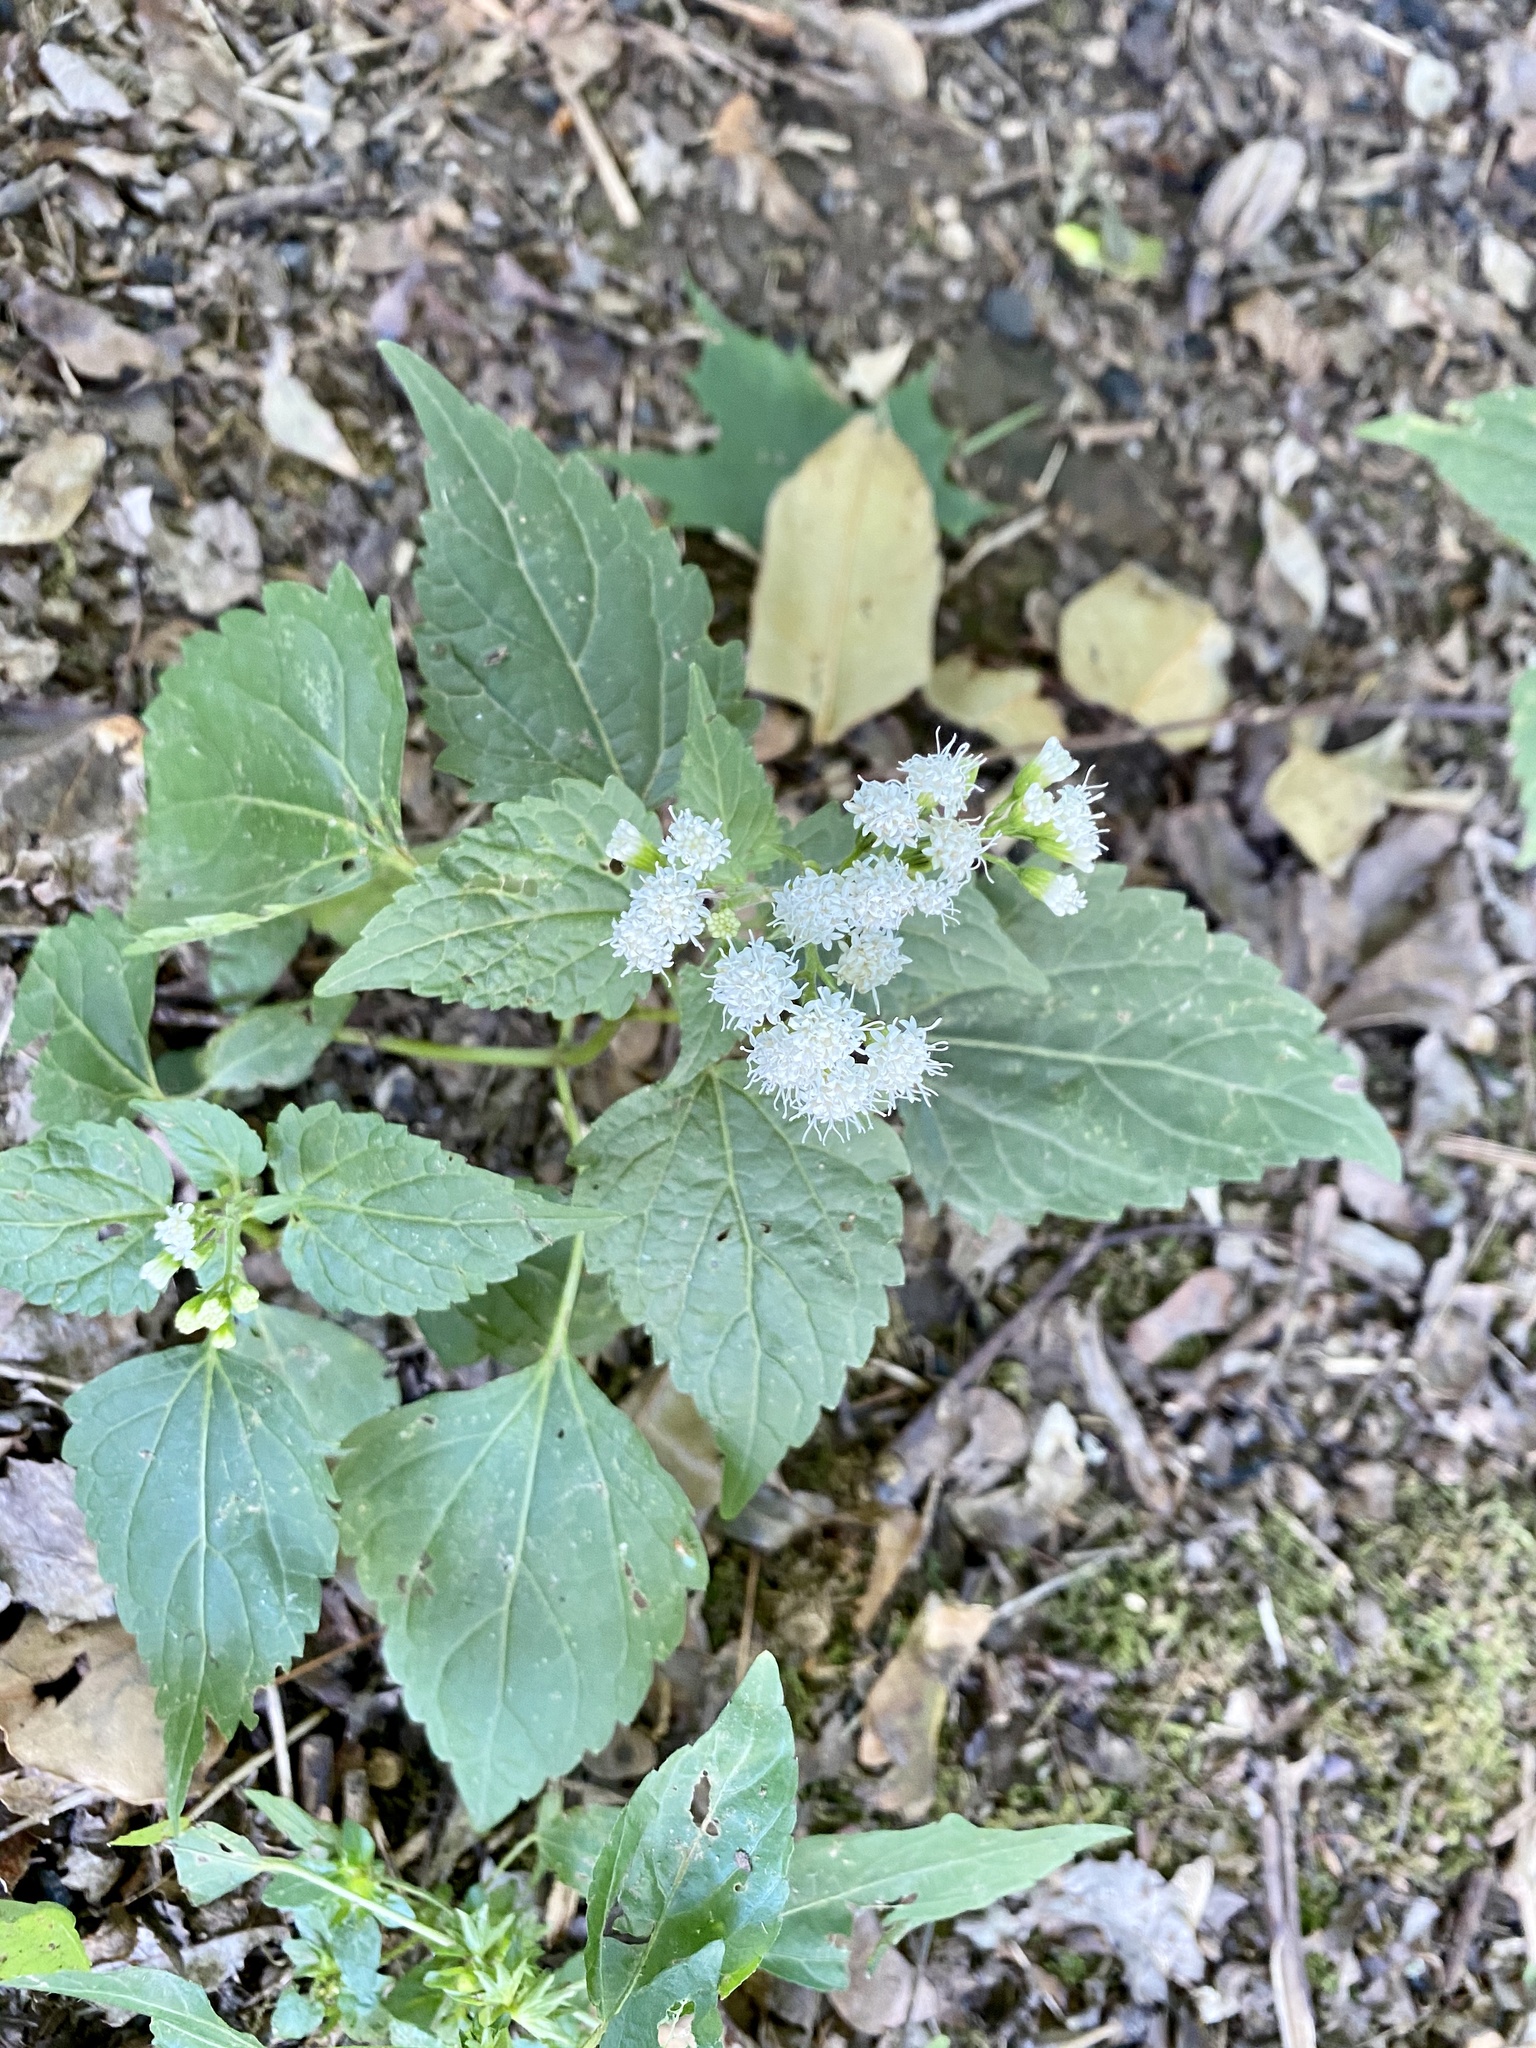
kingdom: Plantae
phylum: Tracheophyta
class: Magnoliopsida
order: Asterales
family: Asteraceae
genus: Ageratina
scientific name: Ageratina altissima
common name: White snakeroot
